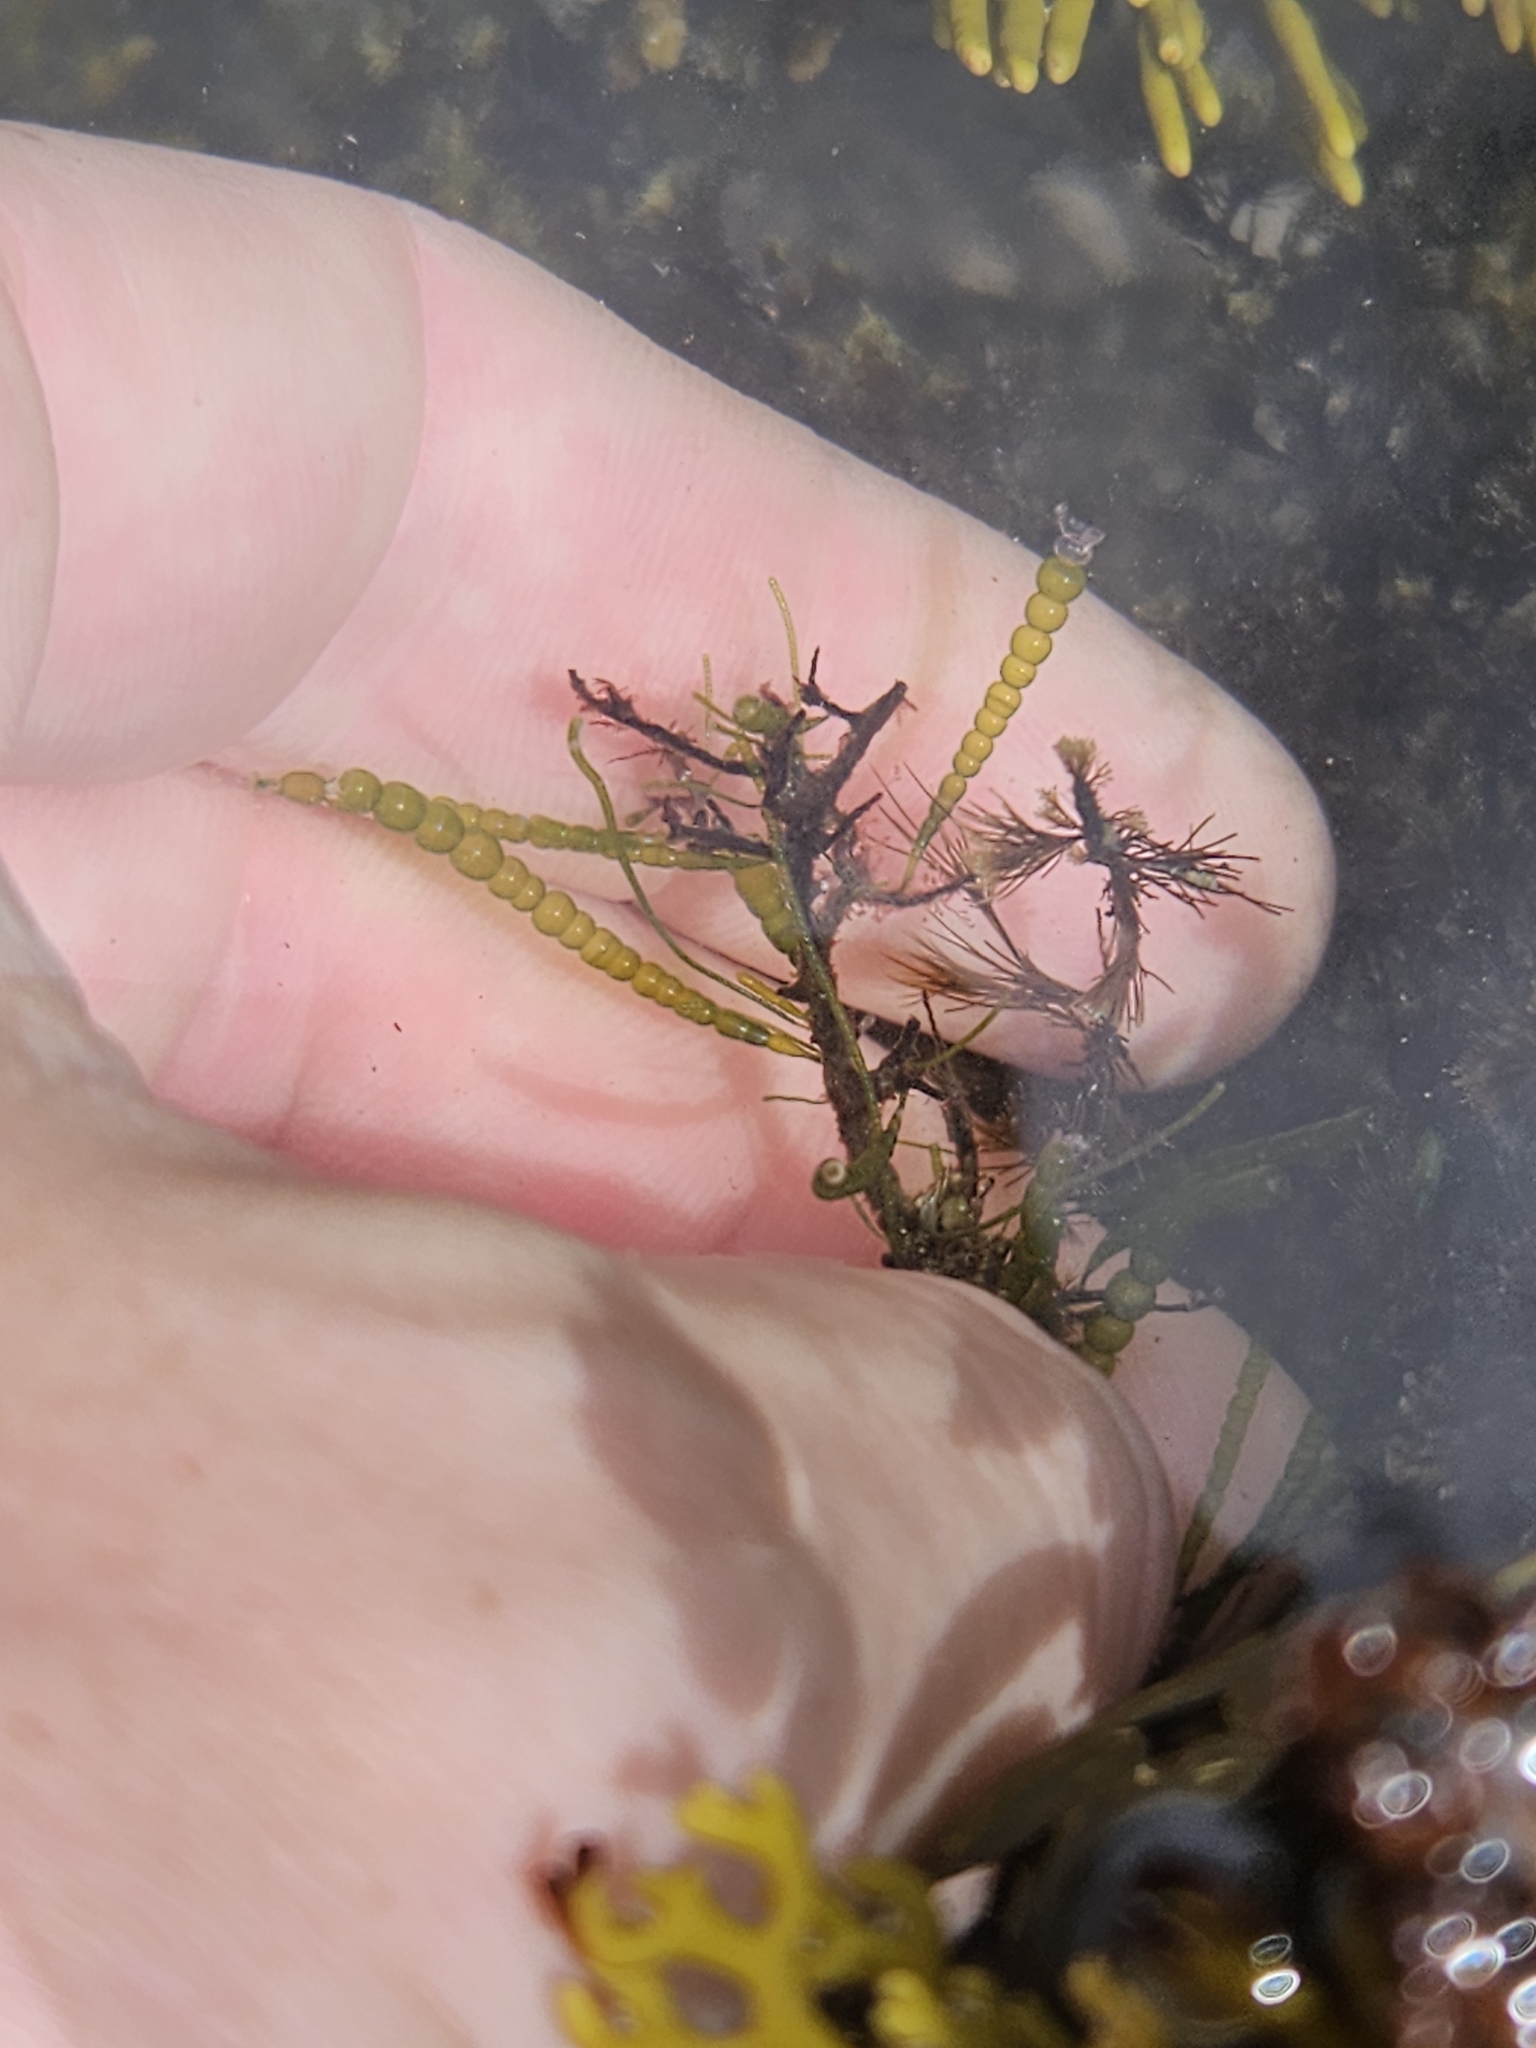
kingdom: Plantae
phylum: Chlorophyta
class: Ulvophyceae
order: Cladophorales
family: Cladophoraceae
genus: Chaetomorpha
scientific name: Chaetomorpha coliformis
